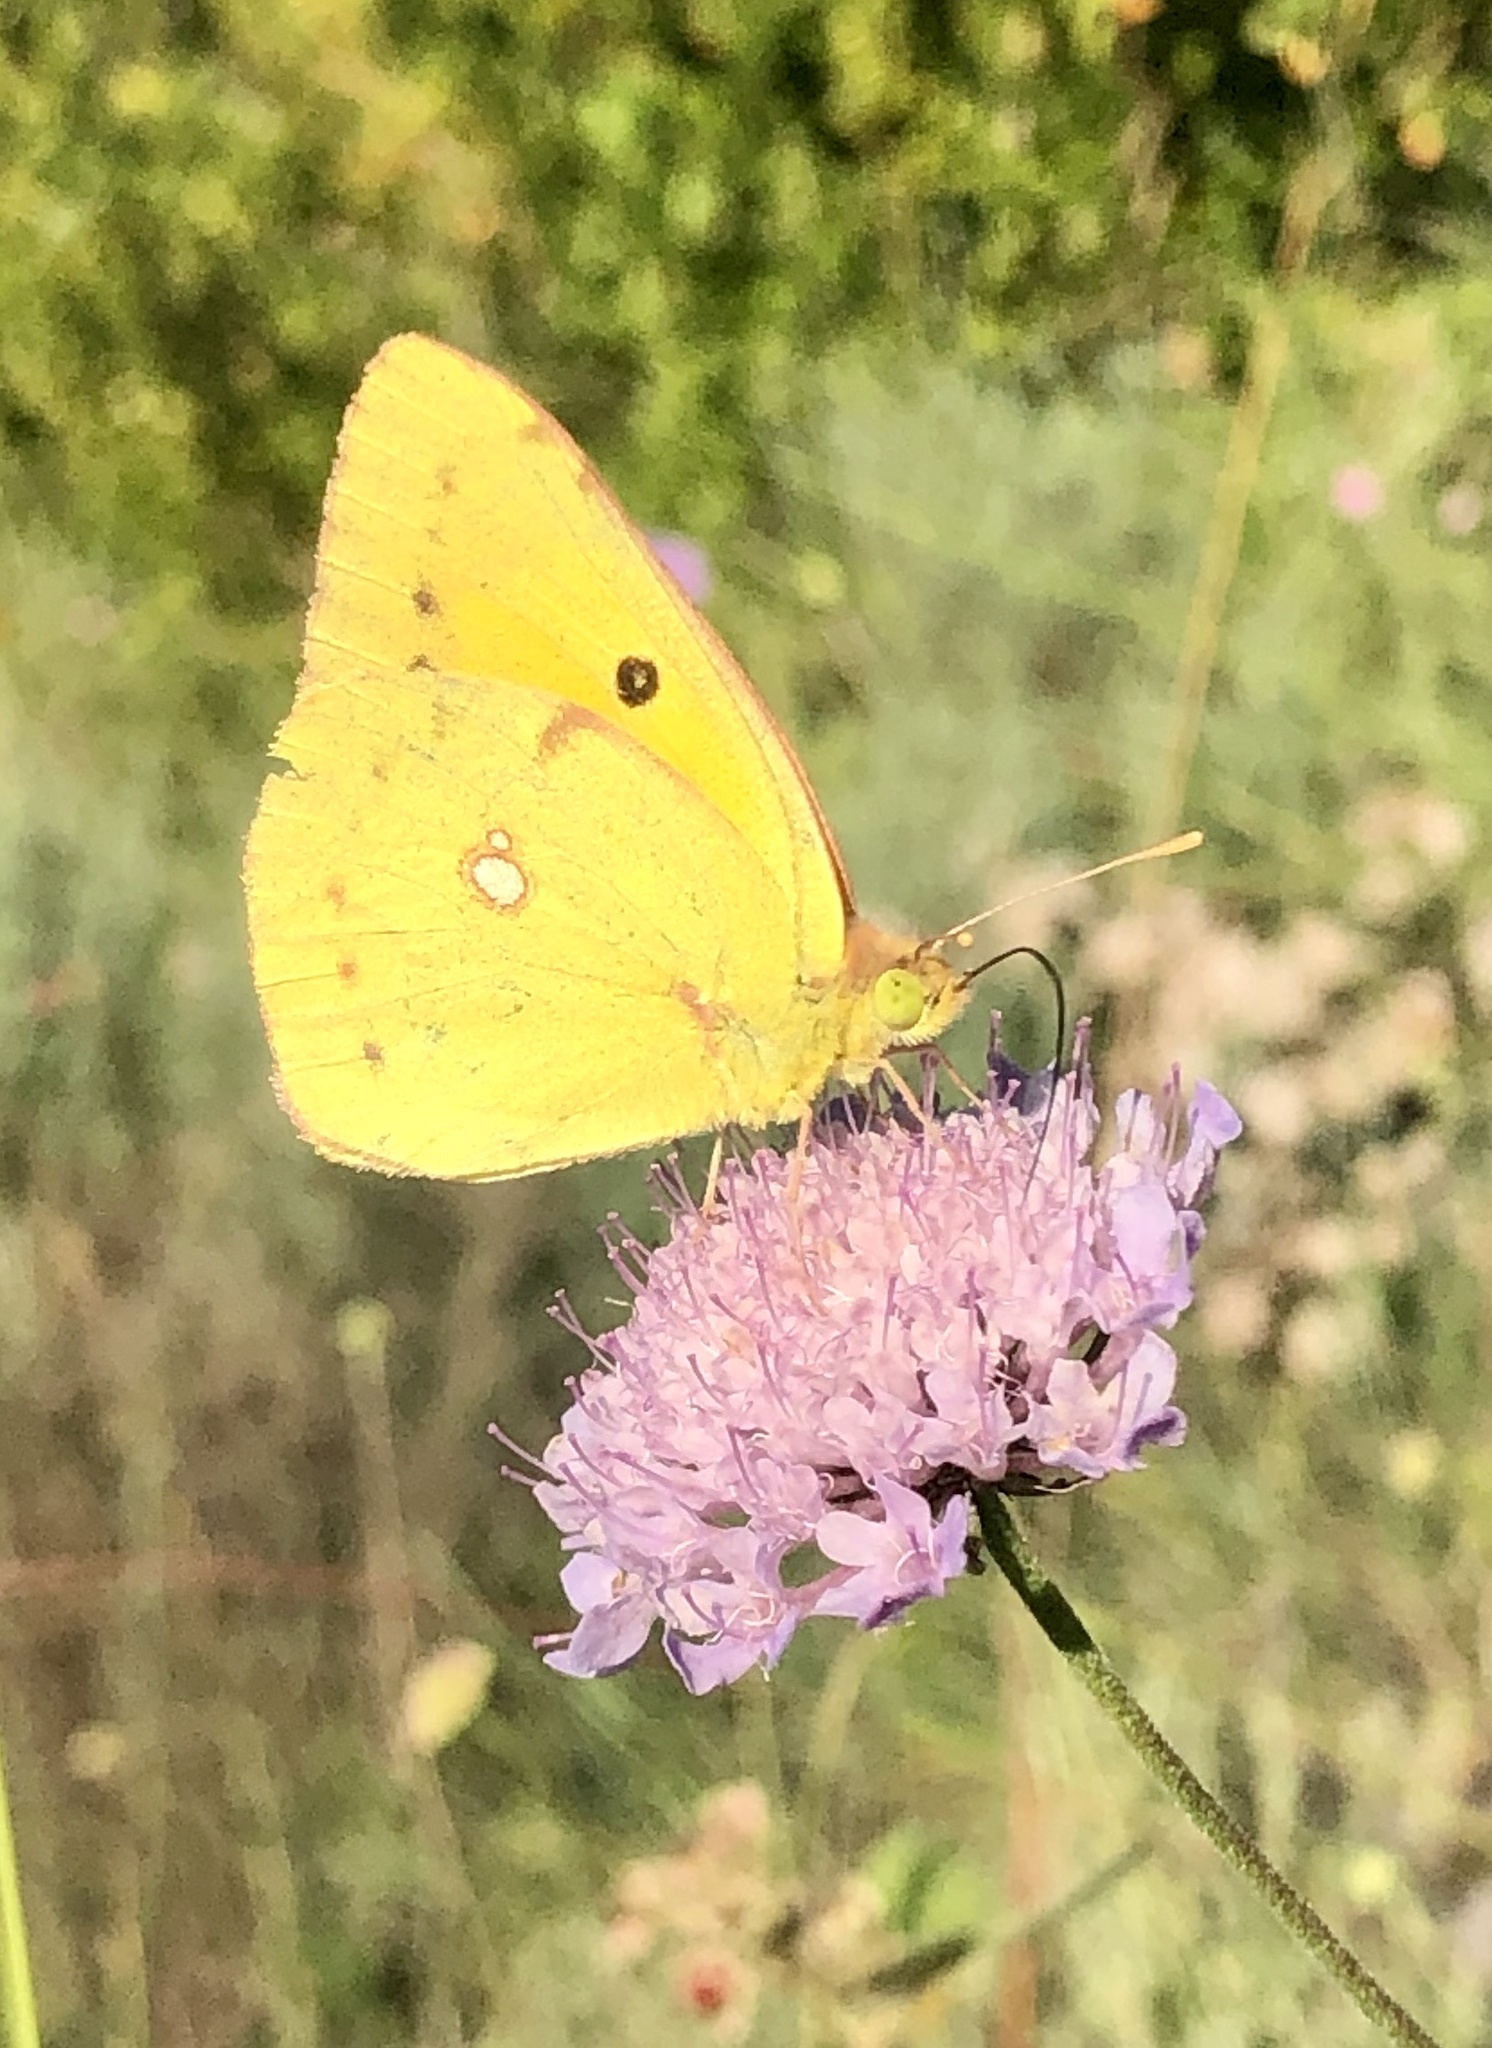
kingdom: Animalia
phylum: Arthropoda
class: Insecta
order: Lepidoptera
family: Pieridae
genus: Colias
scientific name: Colias croceus
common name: Clouded yellow
